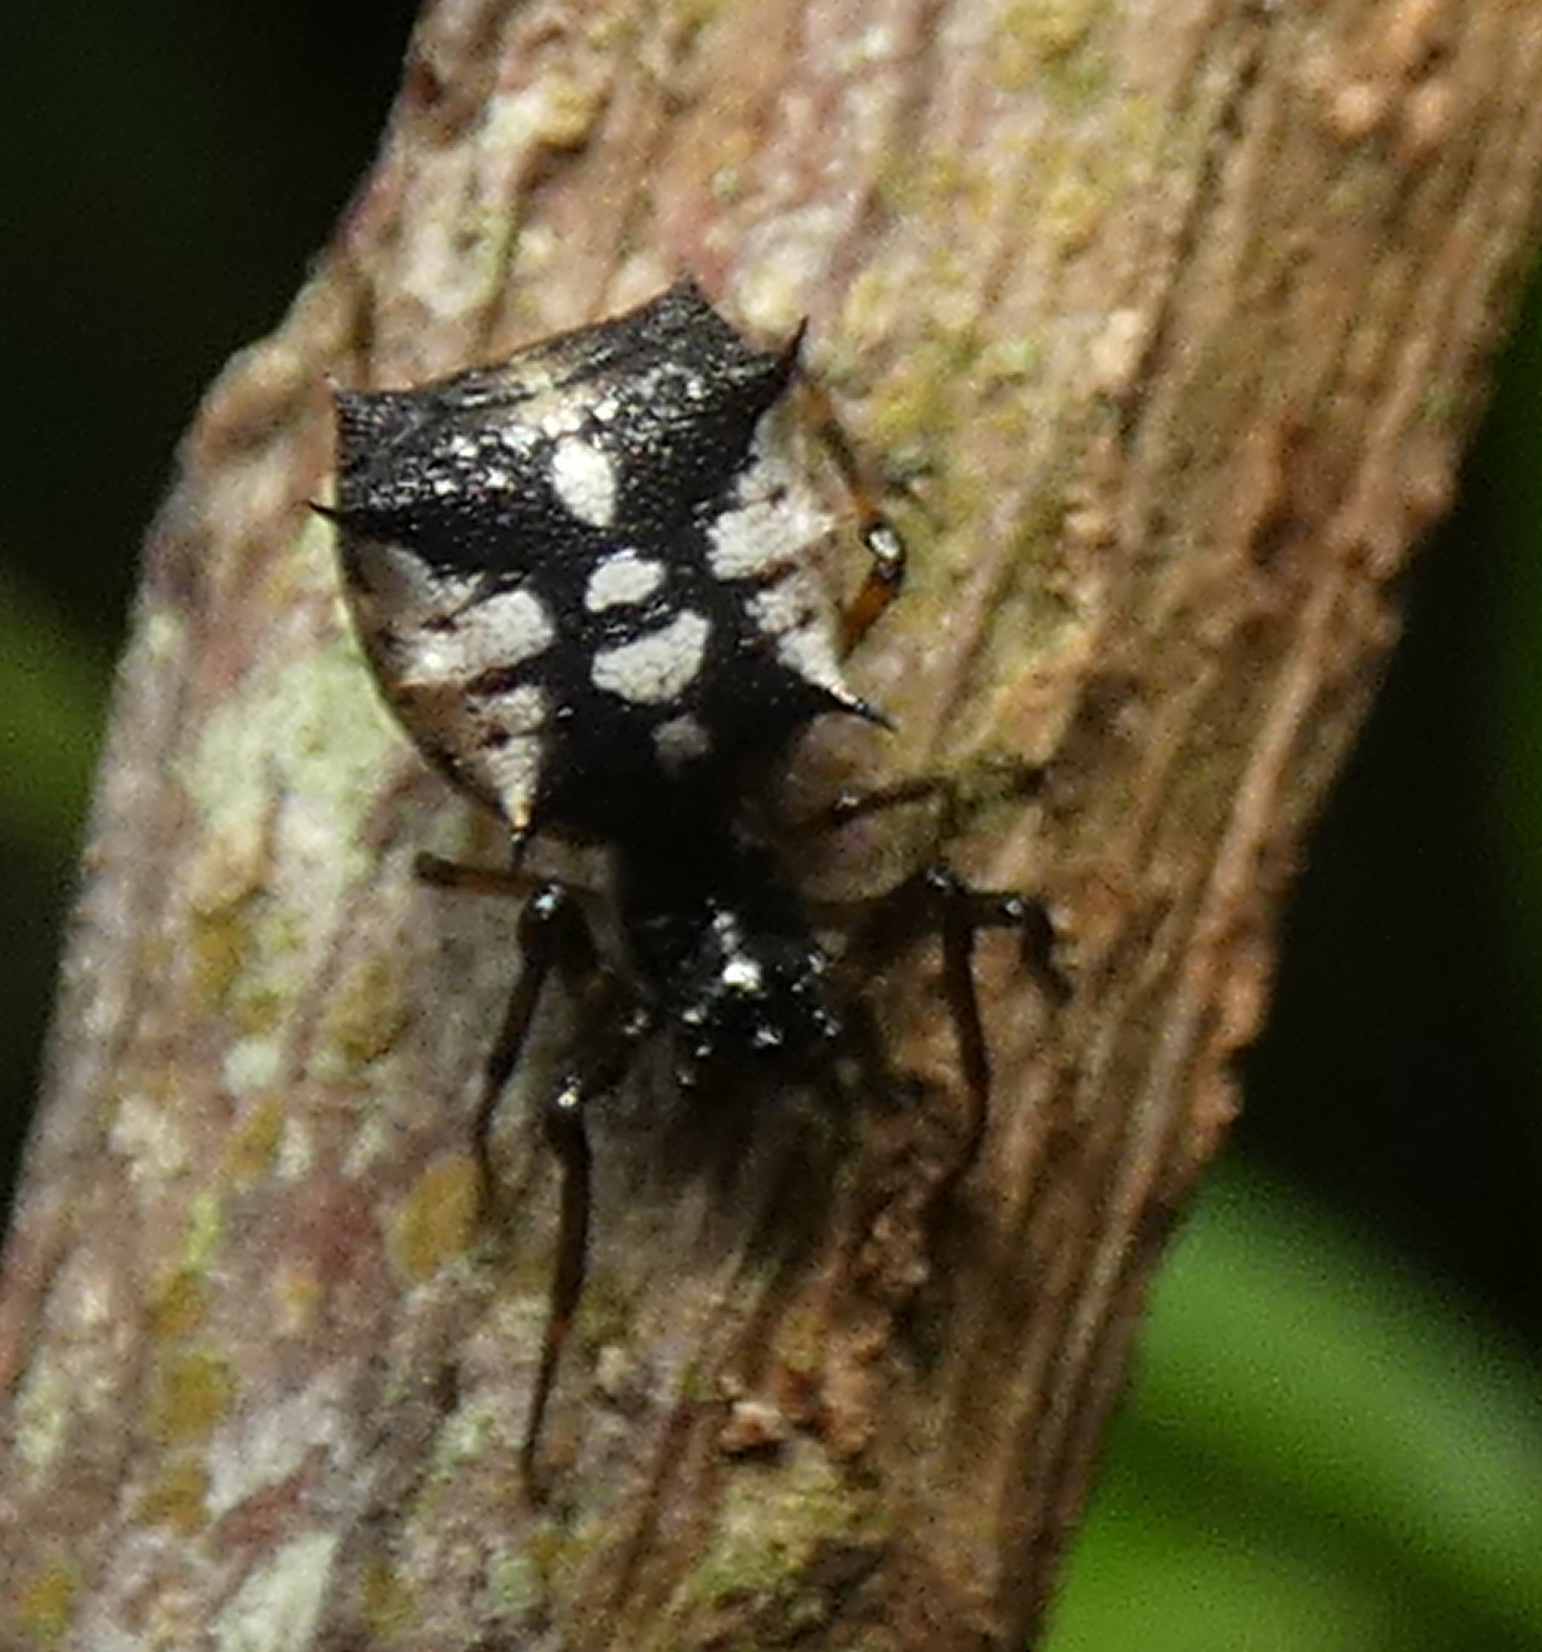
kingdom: Animalia
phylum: Arthropoda
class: Arachnida
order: Araneae
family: Araneidae
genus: Micrathena
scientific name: Micrathena picta
